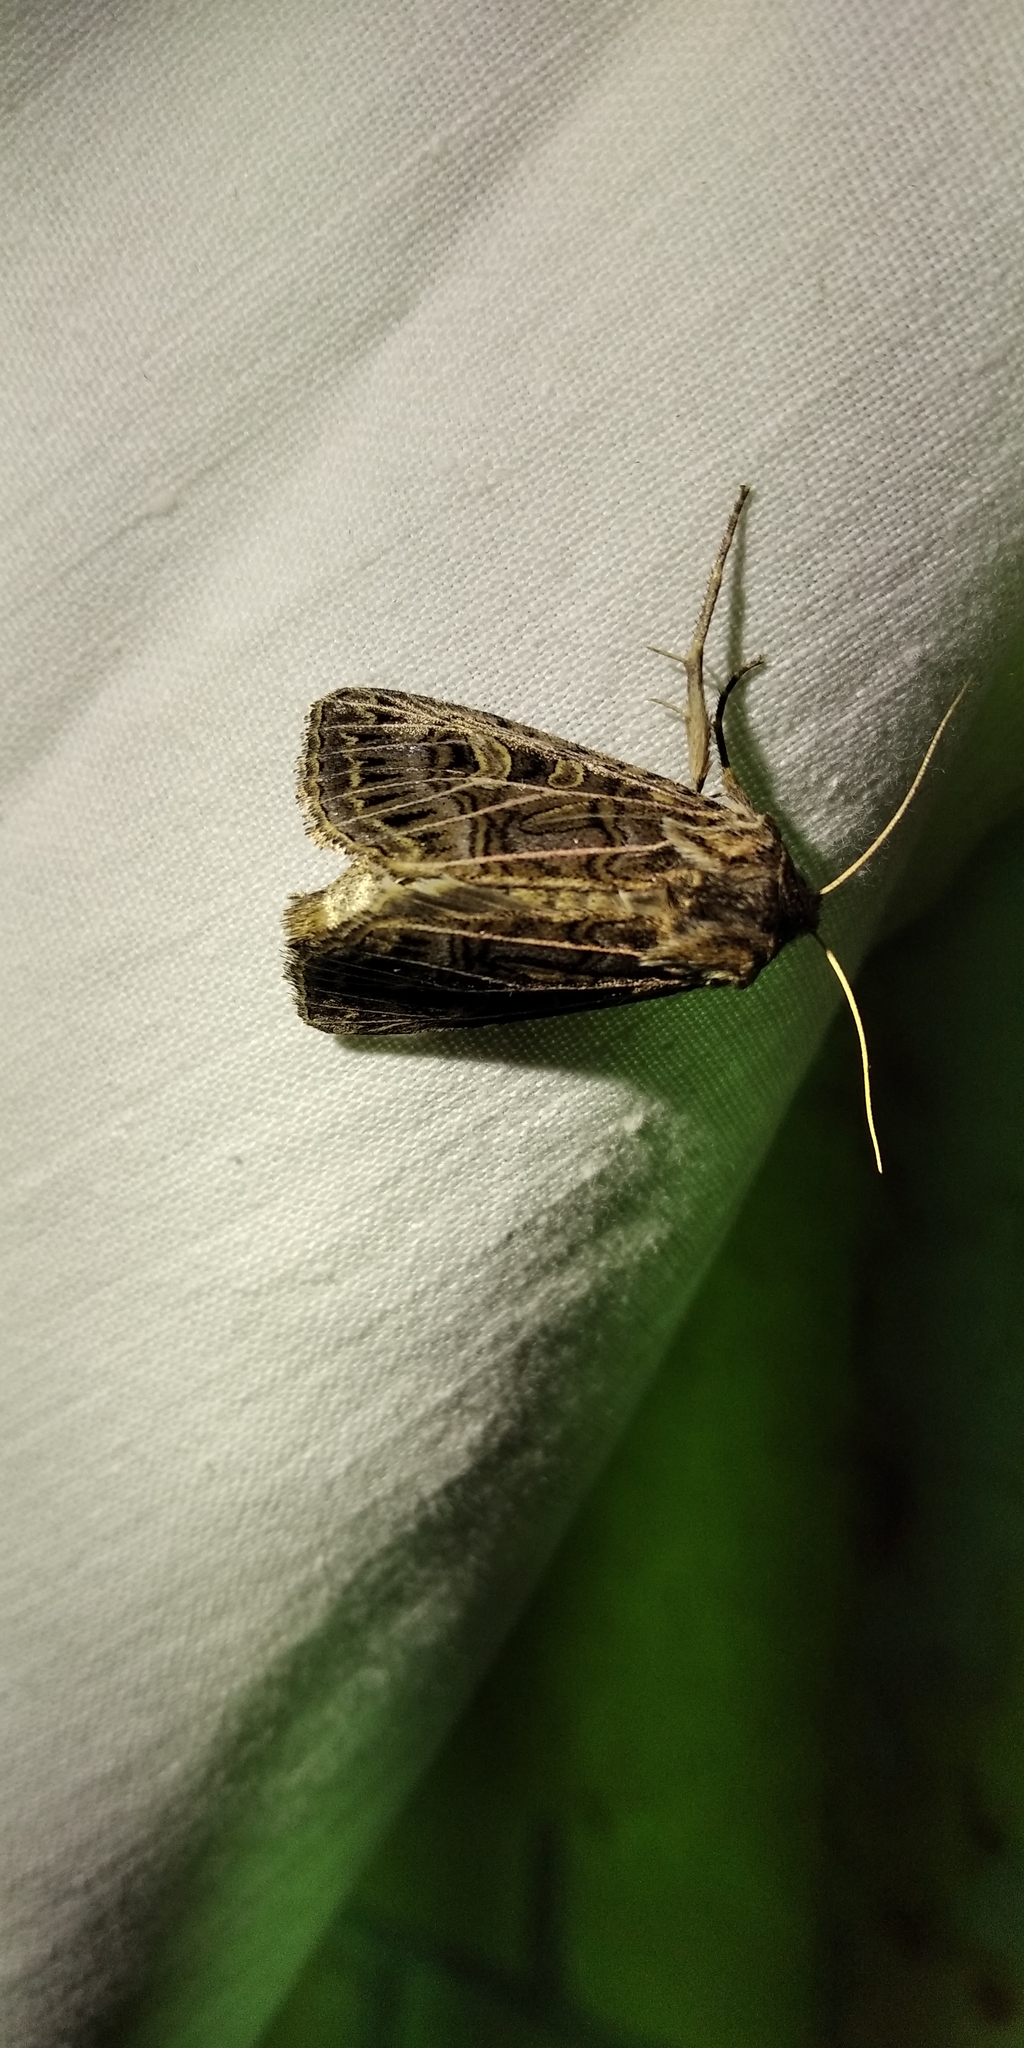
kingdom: Animalia
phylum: Arthropoda
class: Insecta
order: Lepidoptera
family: Noctuidae
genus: Tholera
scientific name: Tholera decimalis
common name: Feathered gothic
